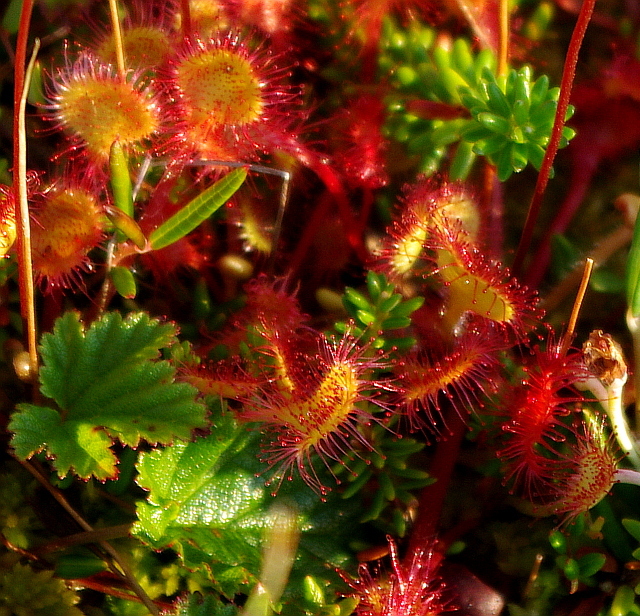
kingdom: Plantae
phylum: Tracheophyta
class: Magnoliopsida
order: Caryophyllales
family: Droseraceae
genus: Drosera
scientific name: Drosera rotundifolia
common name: Round-leaved sundew
